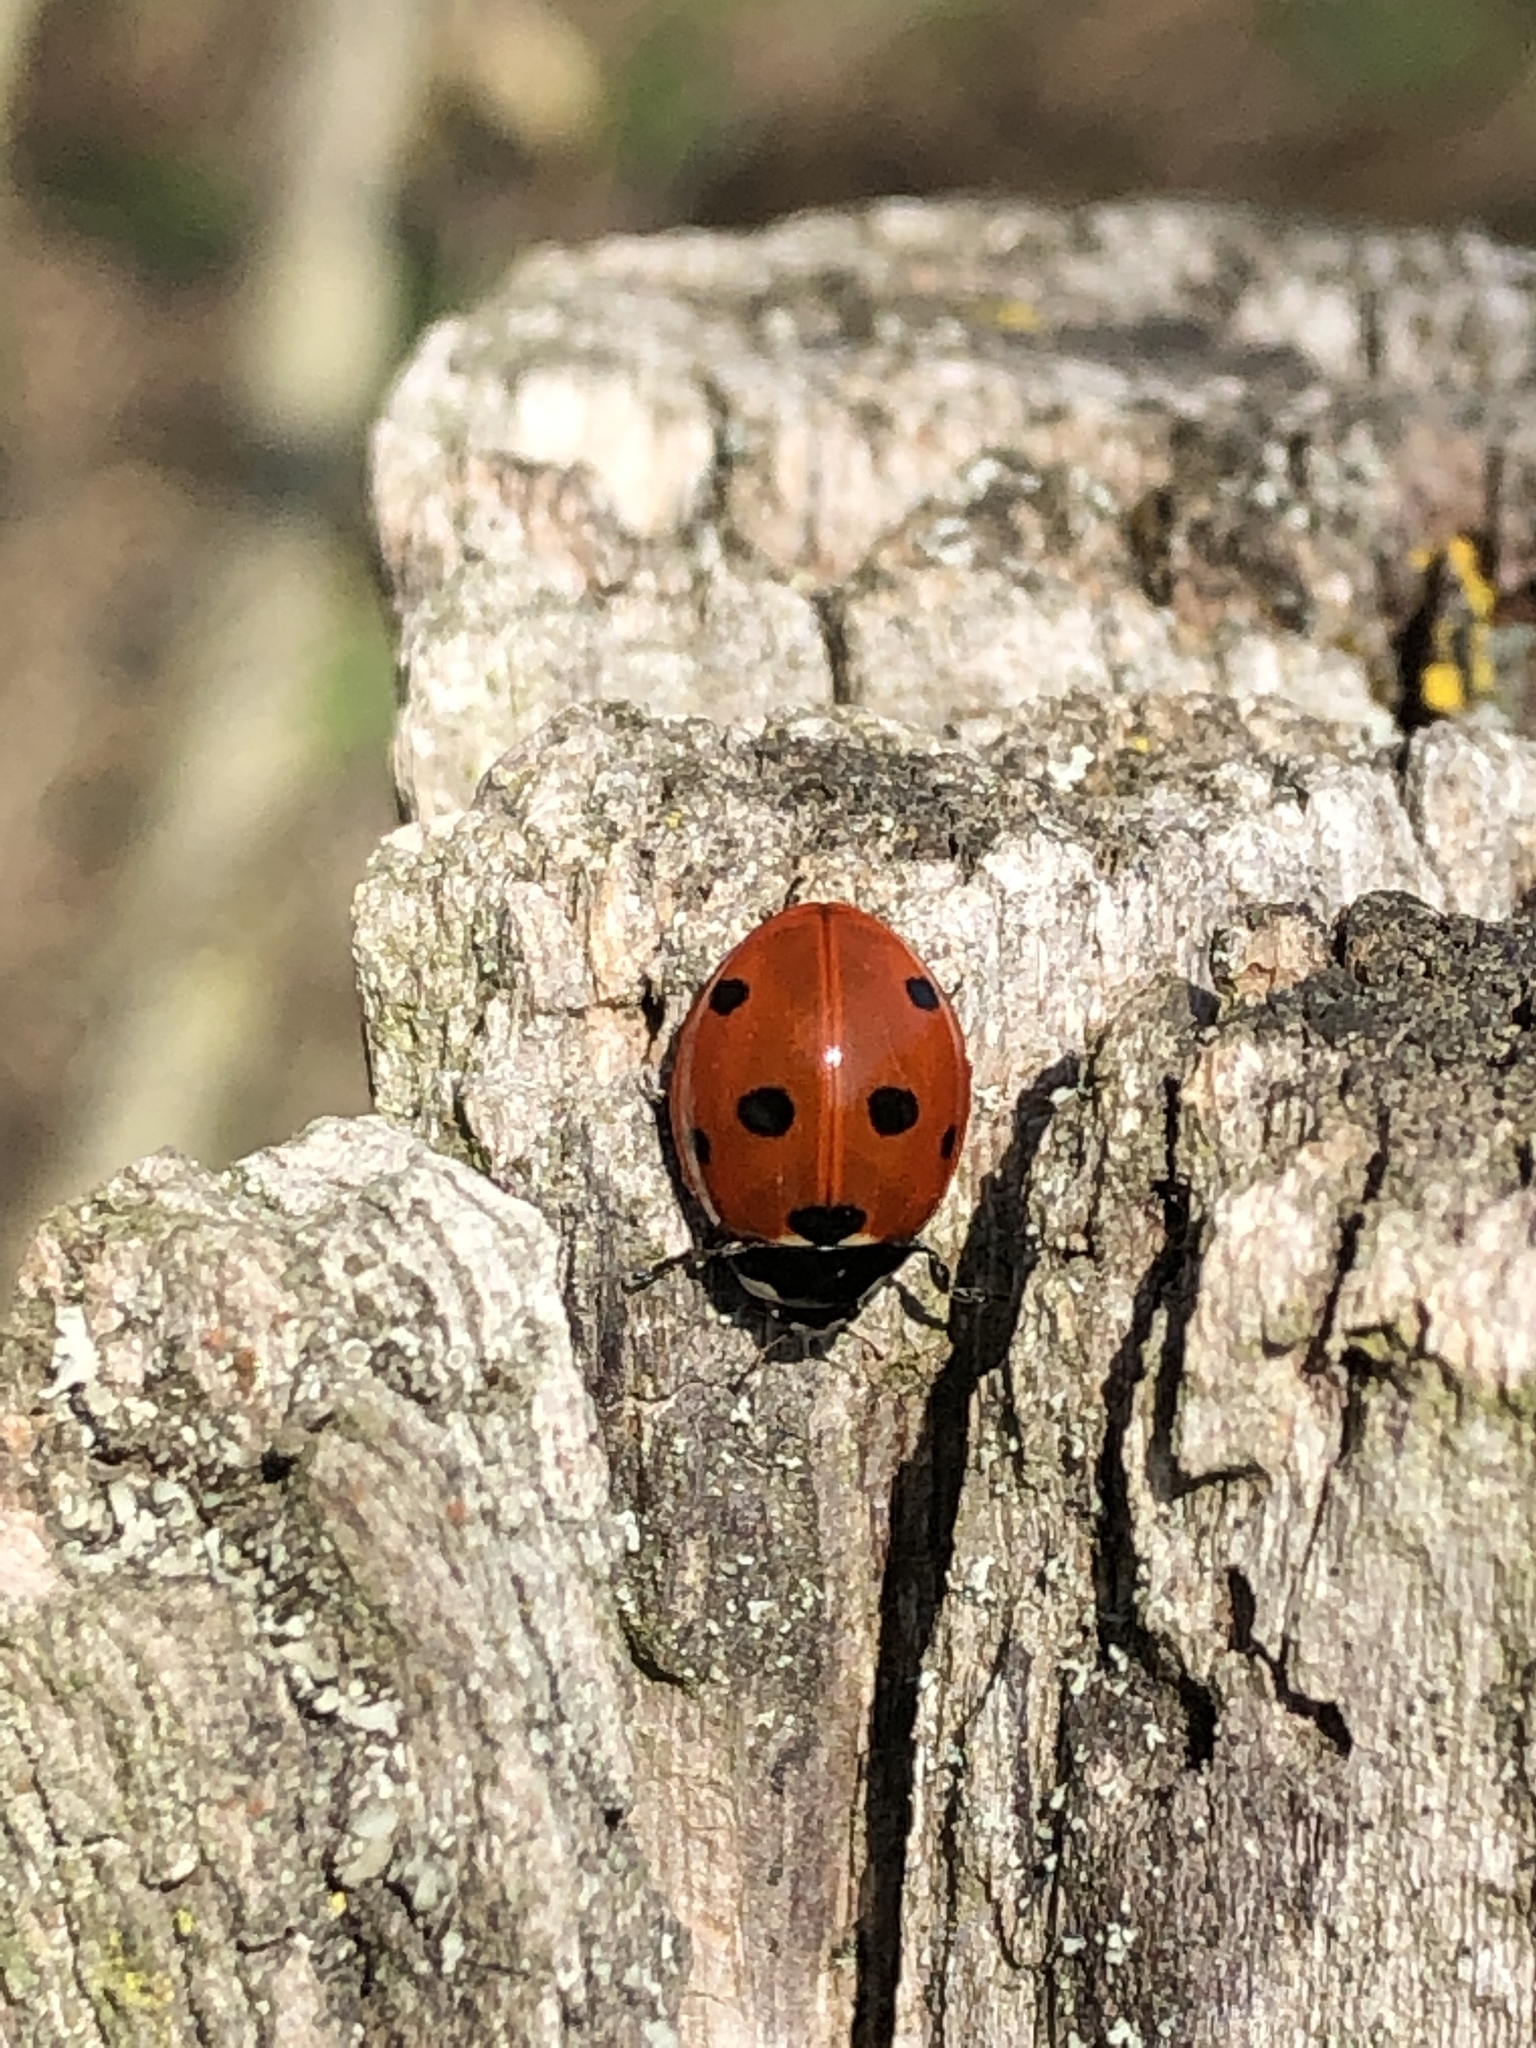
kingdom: Animalia
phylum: Arthropoda
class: Insecta
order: Coleoptera
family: Coccinellidae
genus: Coccinella
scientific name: Coccinella septempunctata
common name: Sevenspotted lady beetle
